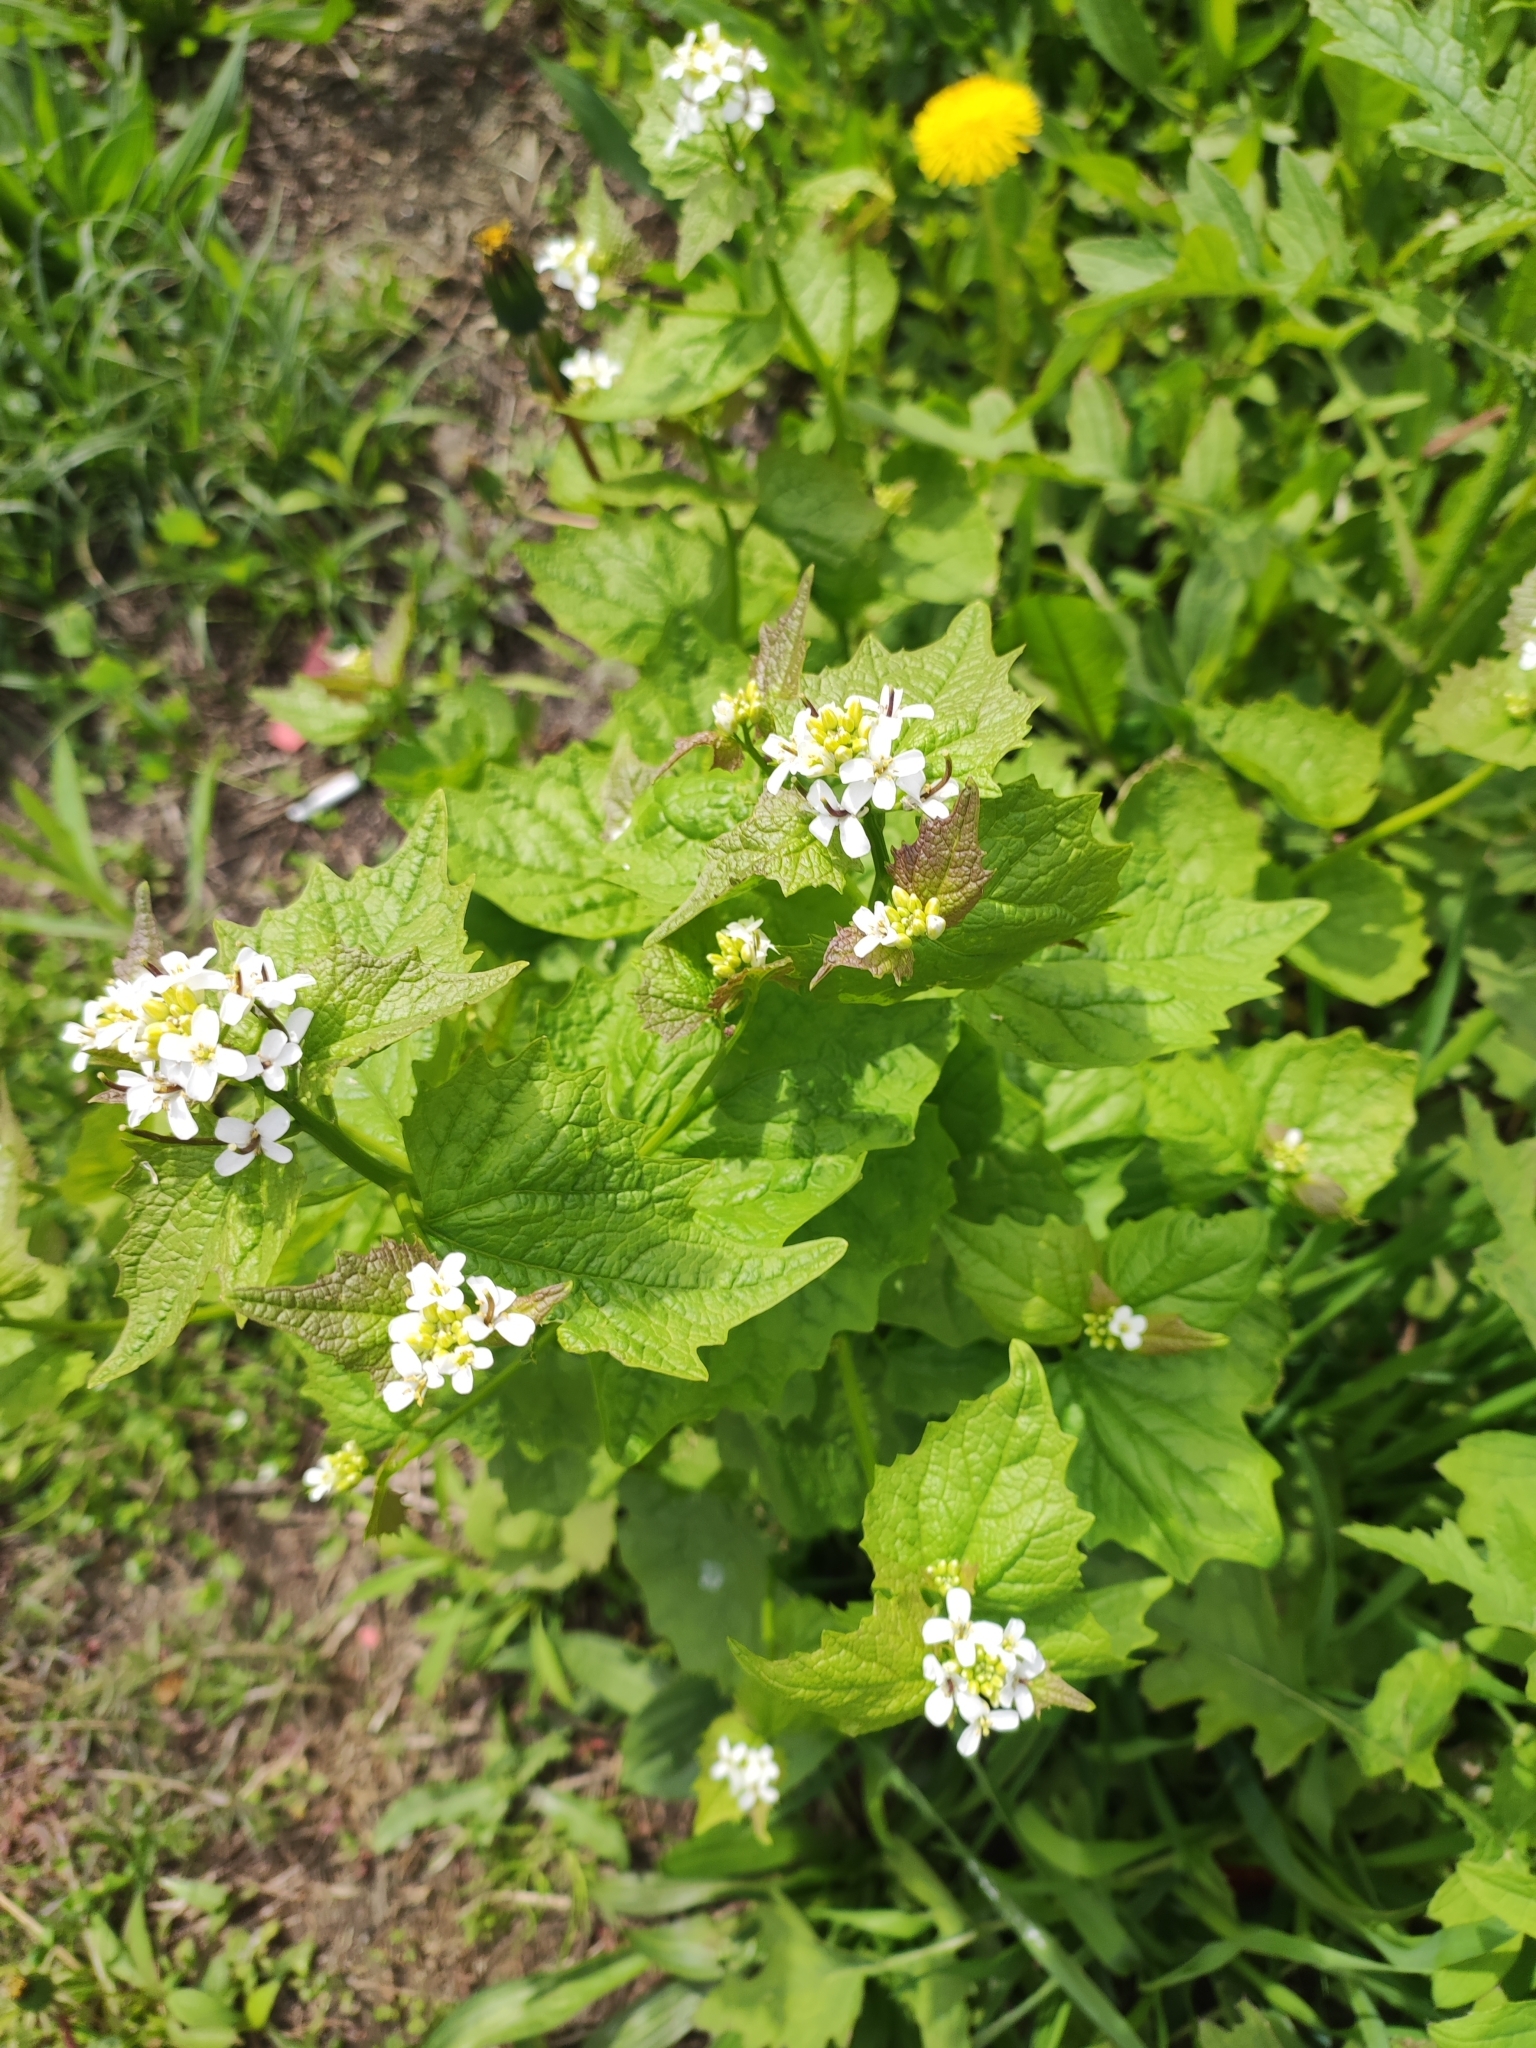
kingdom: Plantae
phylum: Tracheophyta
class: Magnoliopsida
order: Brassicales
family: Brassicaceae
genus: Alliaria
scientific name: Alliaria petiolata
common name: Garlic mustard
